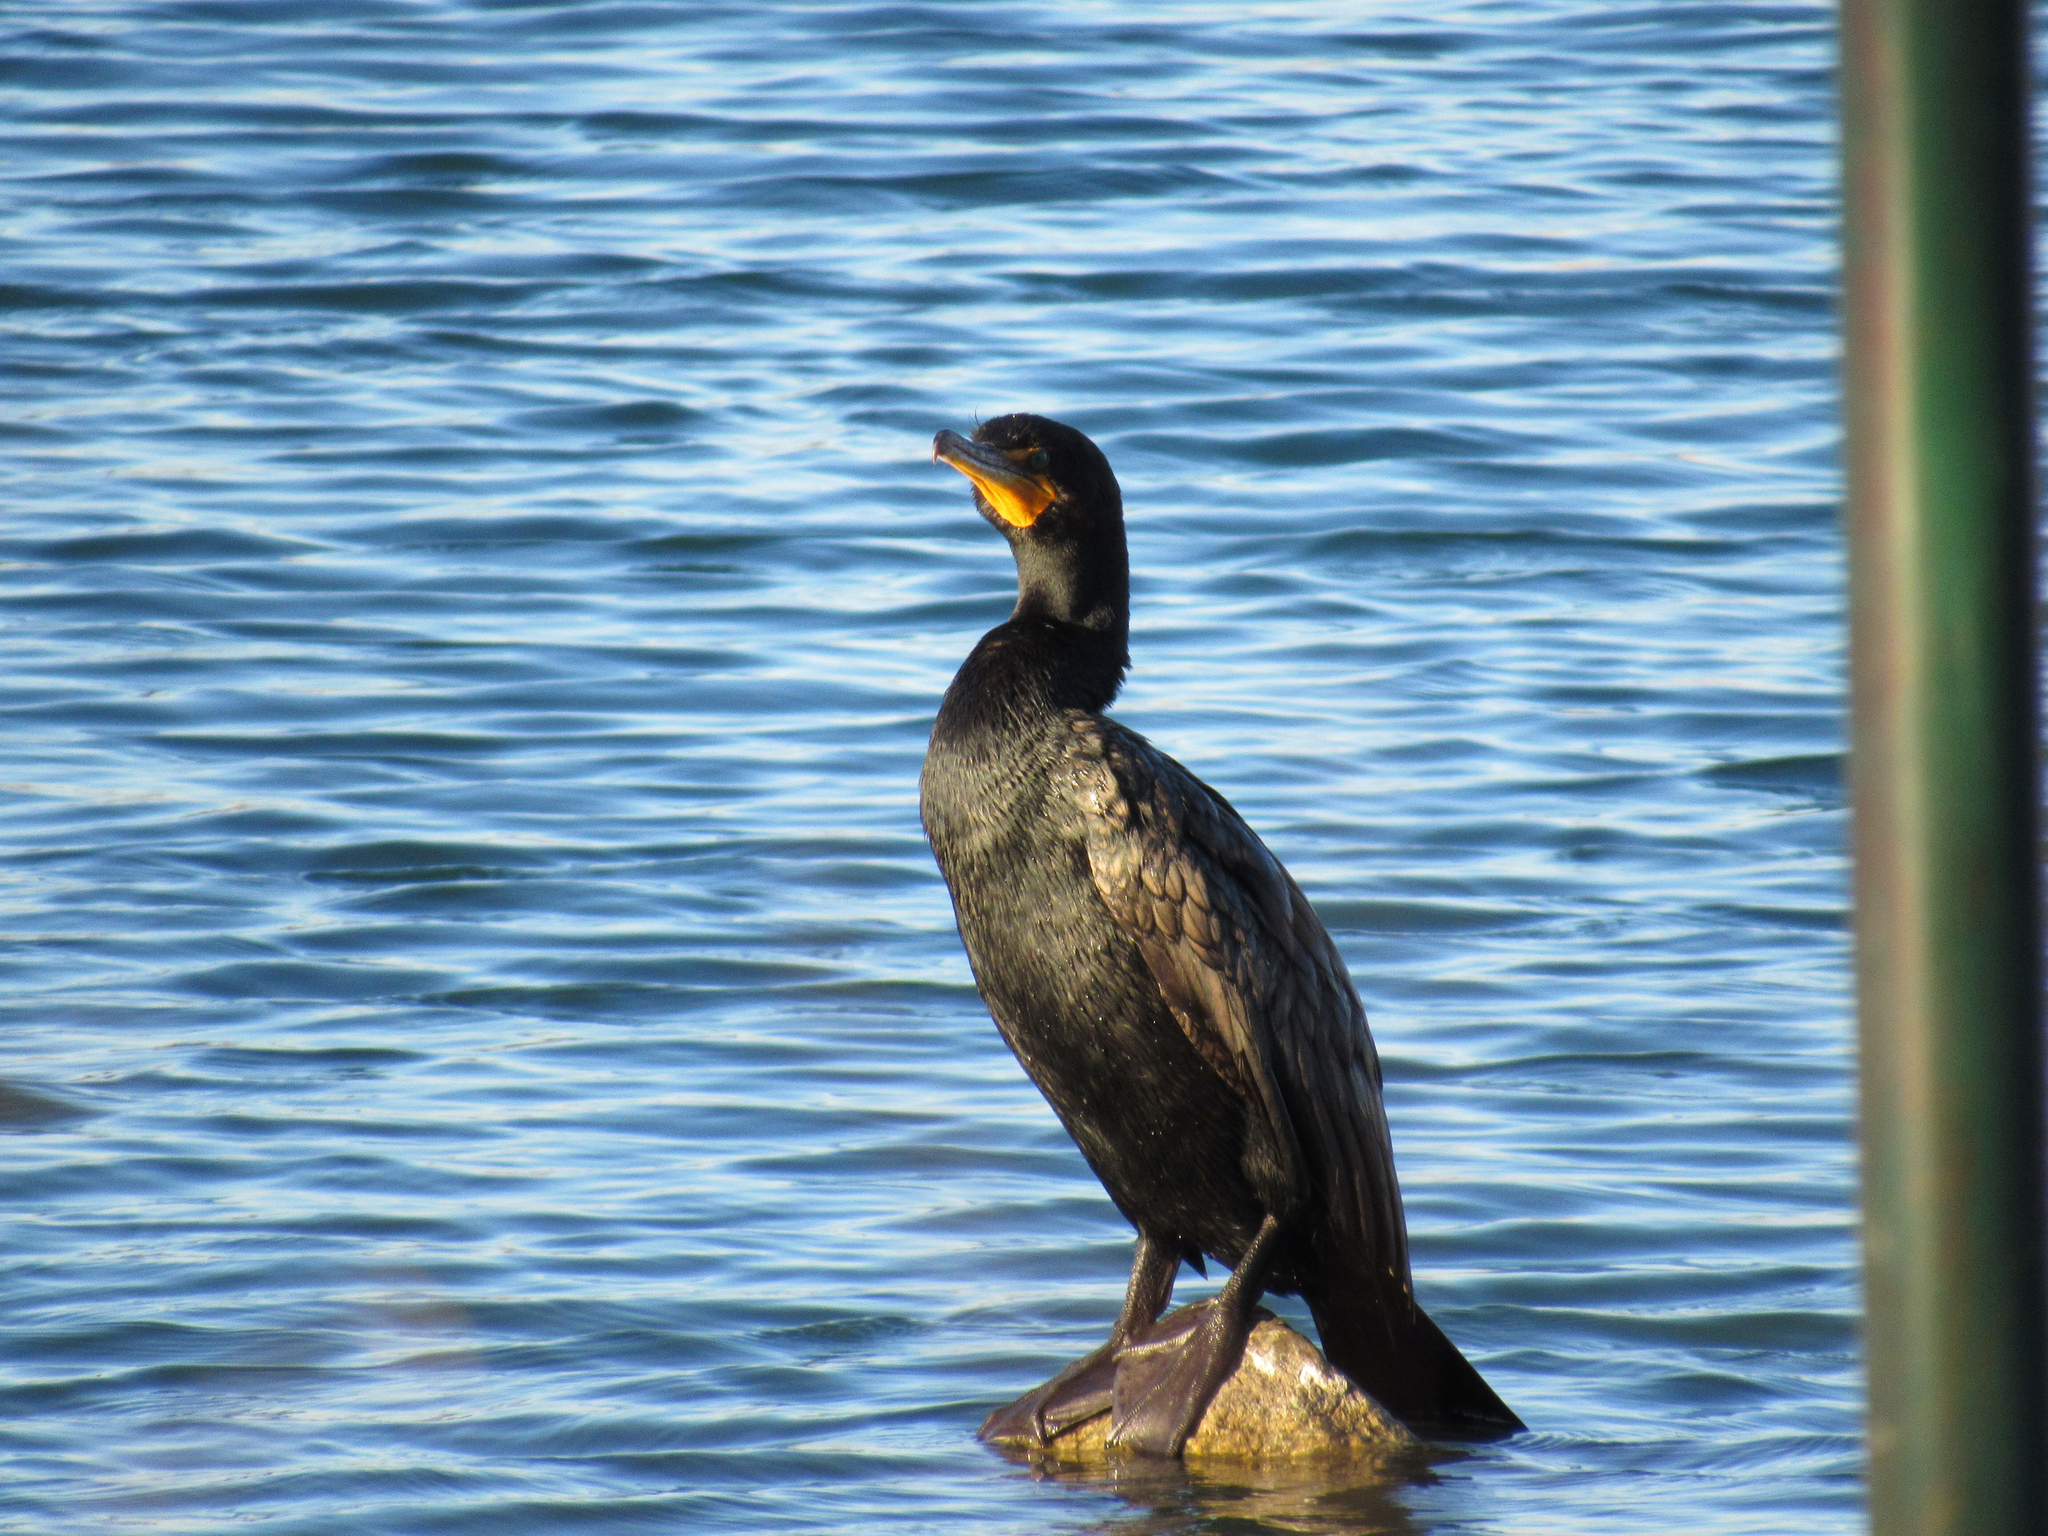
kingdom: Animalia
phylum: Chordata
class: Aves
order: Suliformes
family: Phalacrocoracidae
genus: Phalacrocorax
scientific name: Phalacrocorax auritus
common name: Double-crested cormorant
